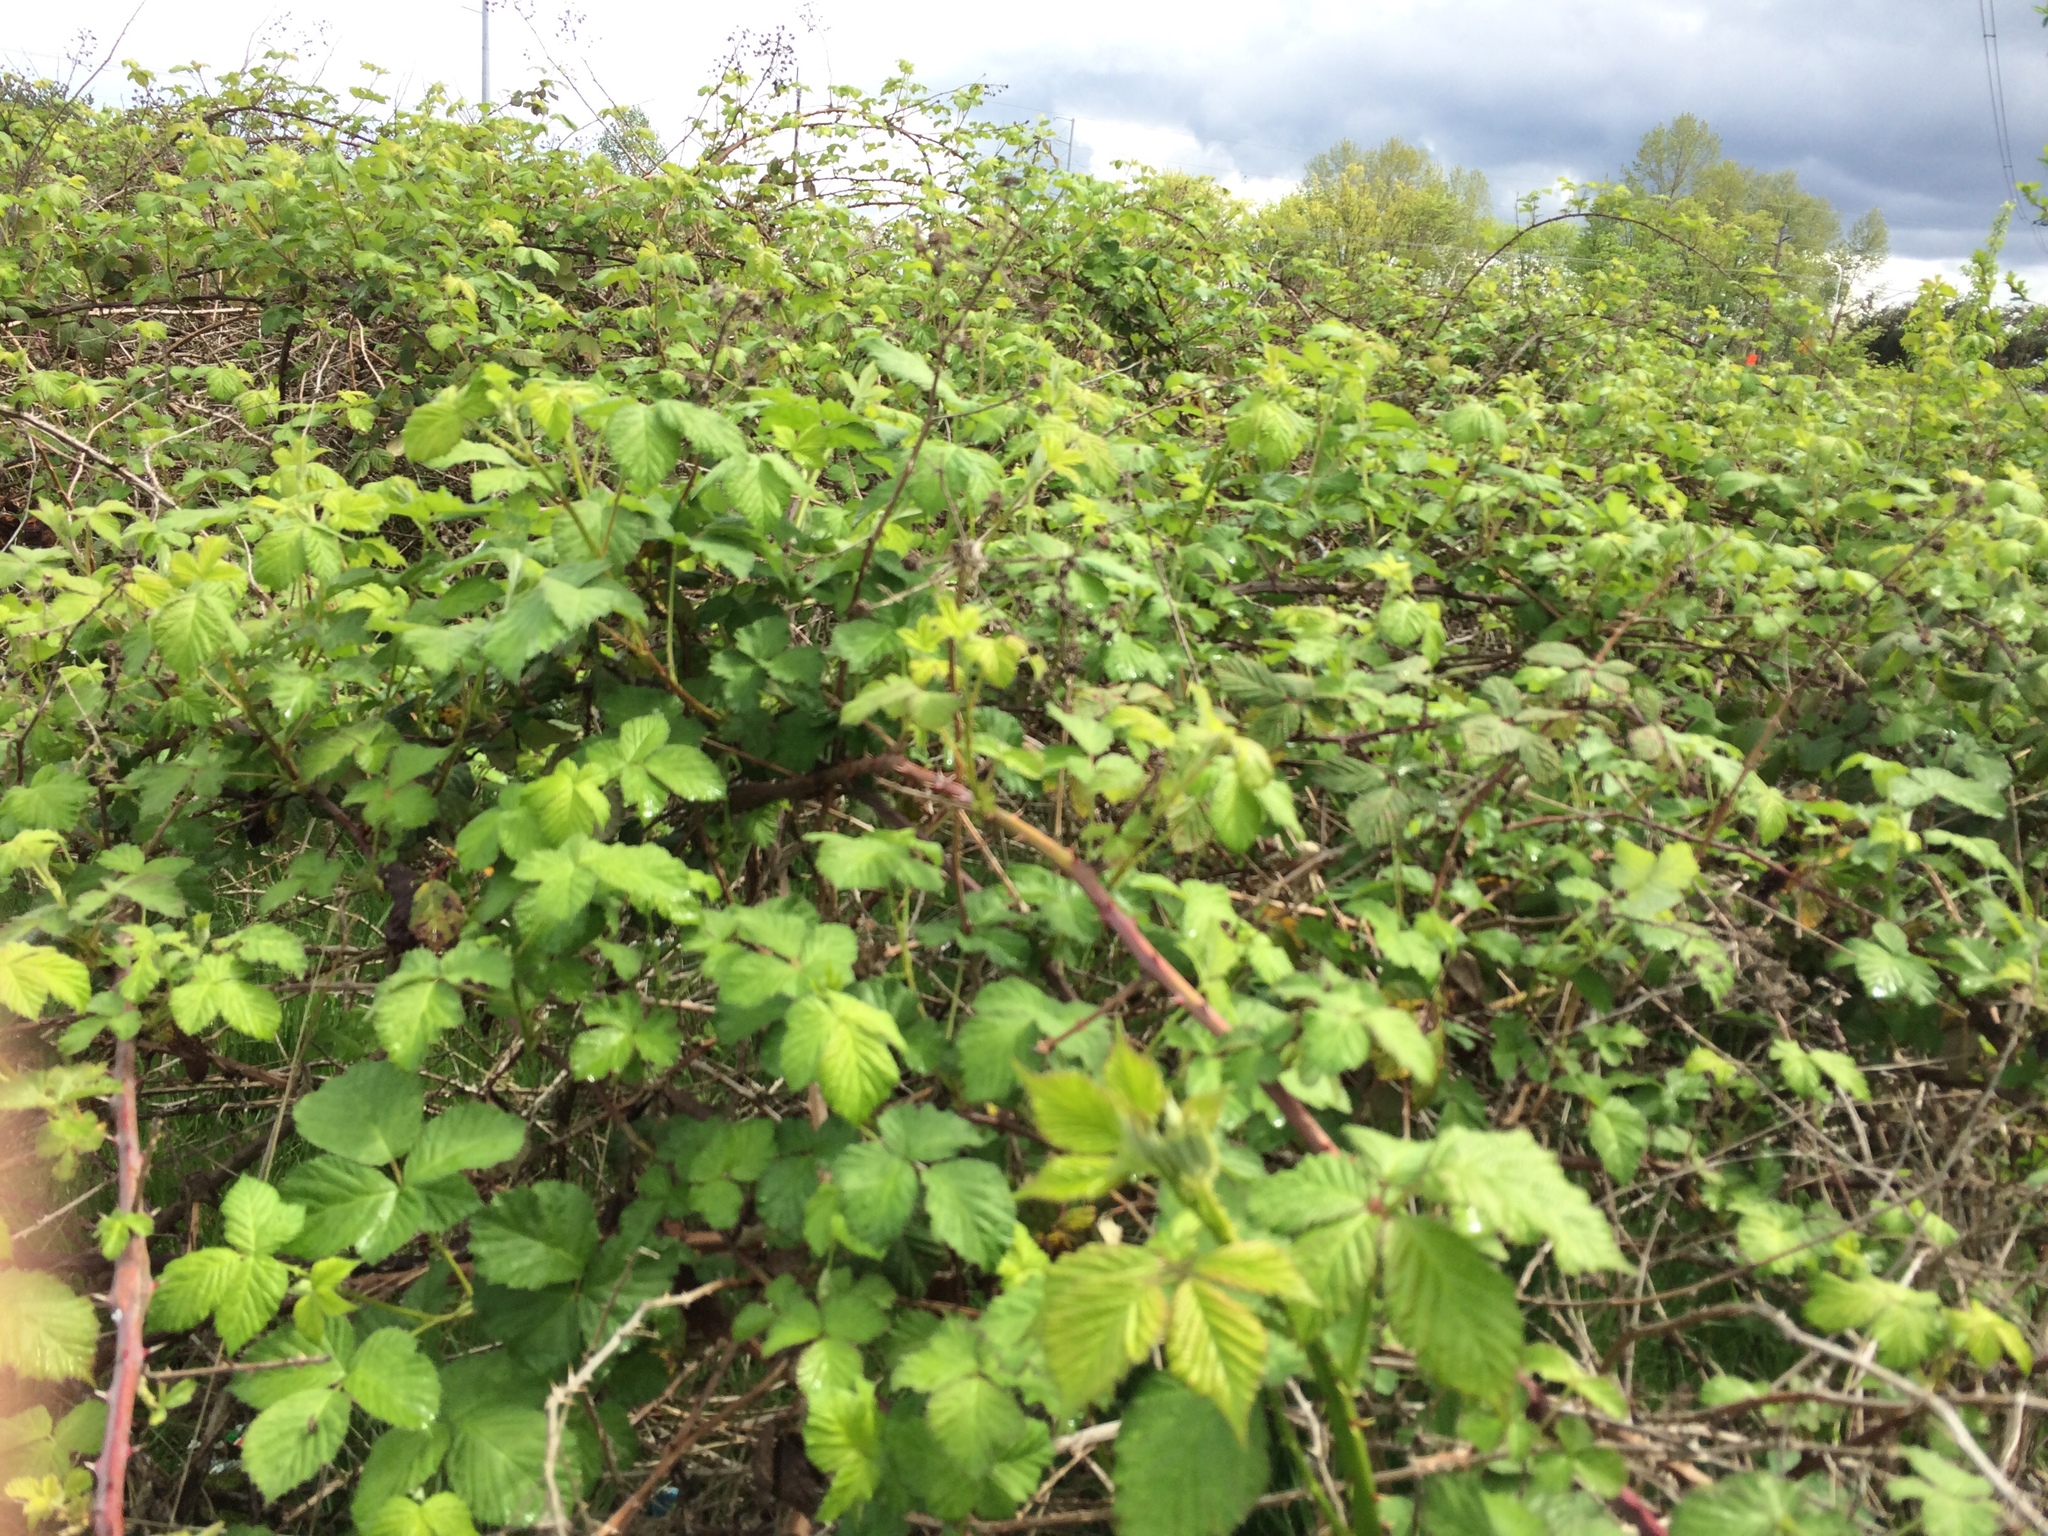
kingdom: Plantae
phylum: Tracheophyta
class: Magnoliopsida
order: Rosales
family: Rosaceae
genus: Rubus
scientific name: Rubus bifrons
